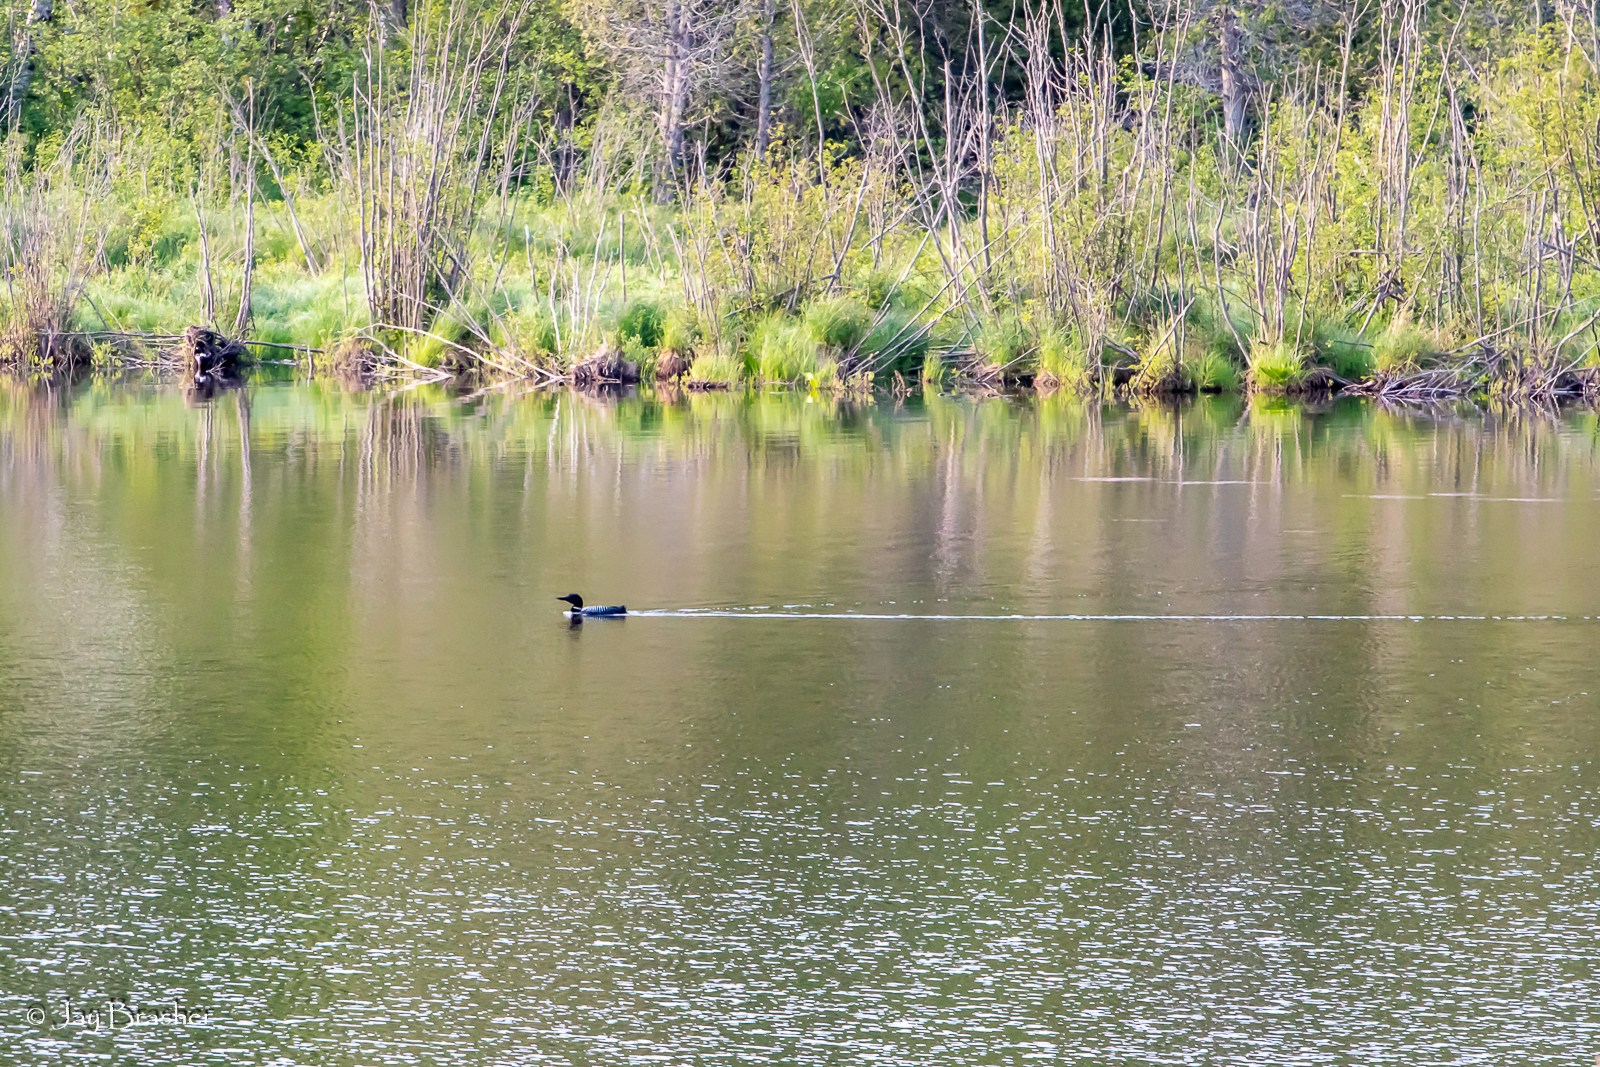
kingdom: Animalia
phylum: Chordata
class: Aves
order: Gaviiformes
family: Gaviidae
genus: Gavia
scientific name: Gavia immer
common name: Common loon
